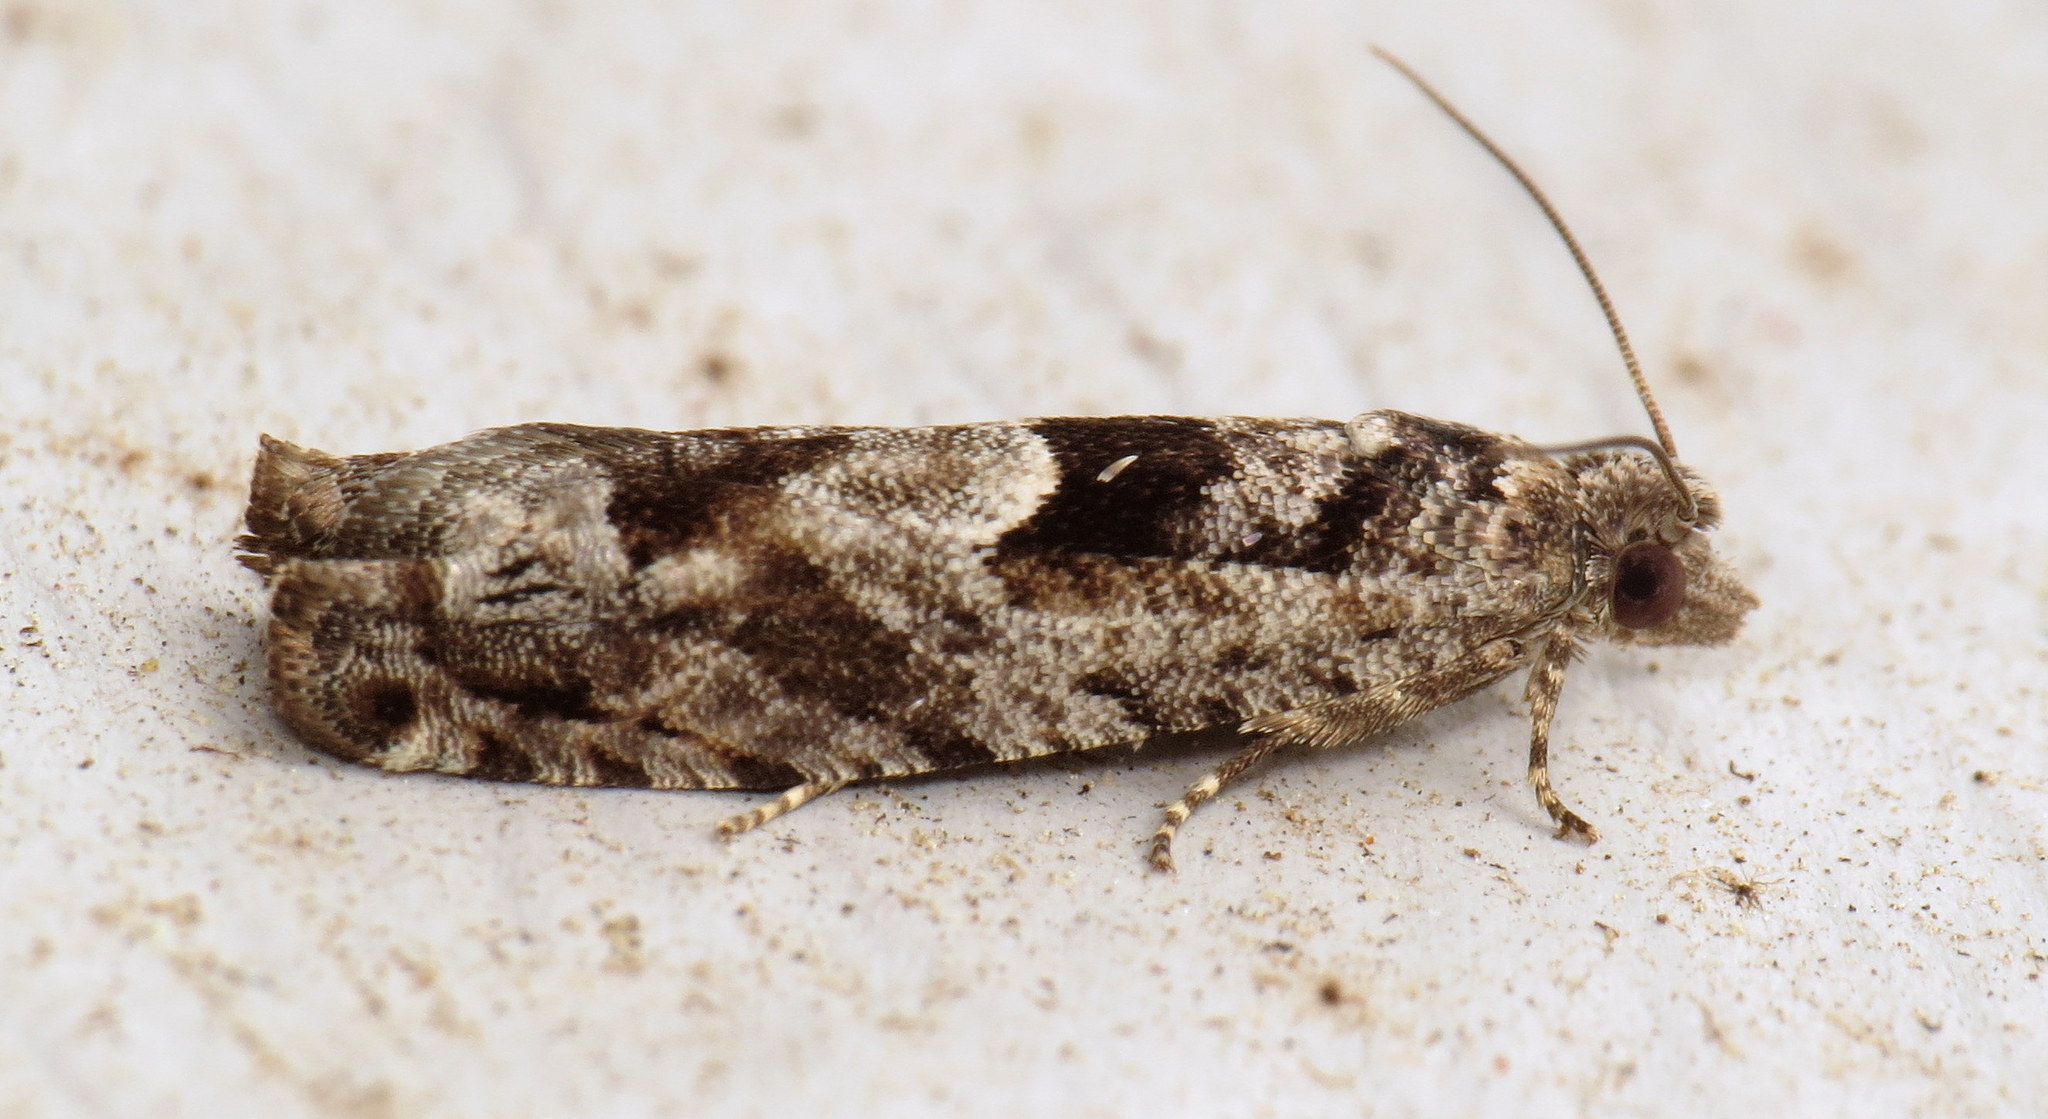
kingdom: Animalia
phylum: Arthropoda
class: Insecta
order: Lepidoptera
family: Tortricidae
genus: Pseudexentera
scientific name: Pseudexentera spoliana
